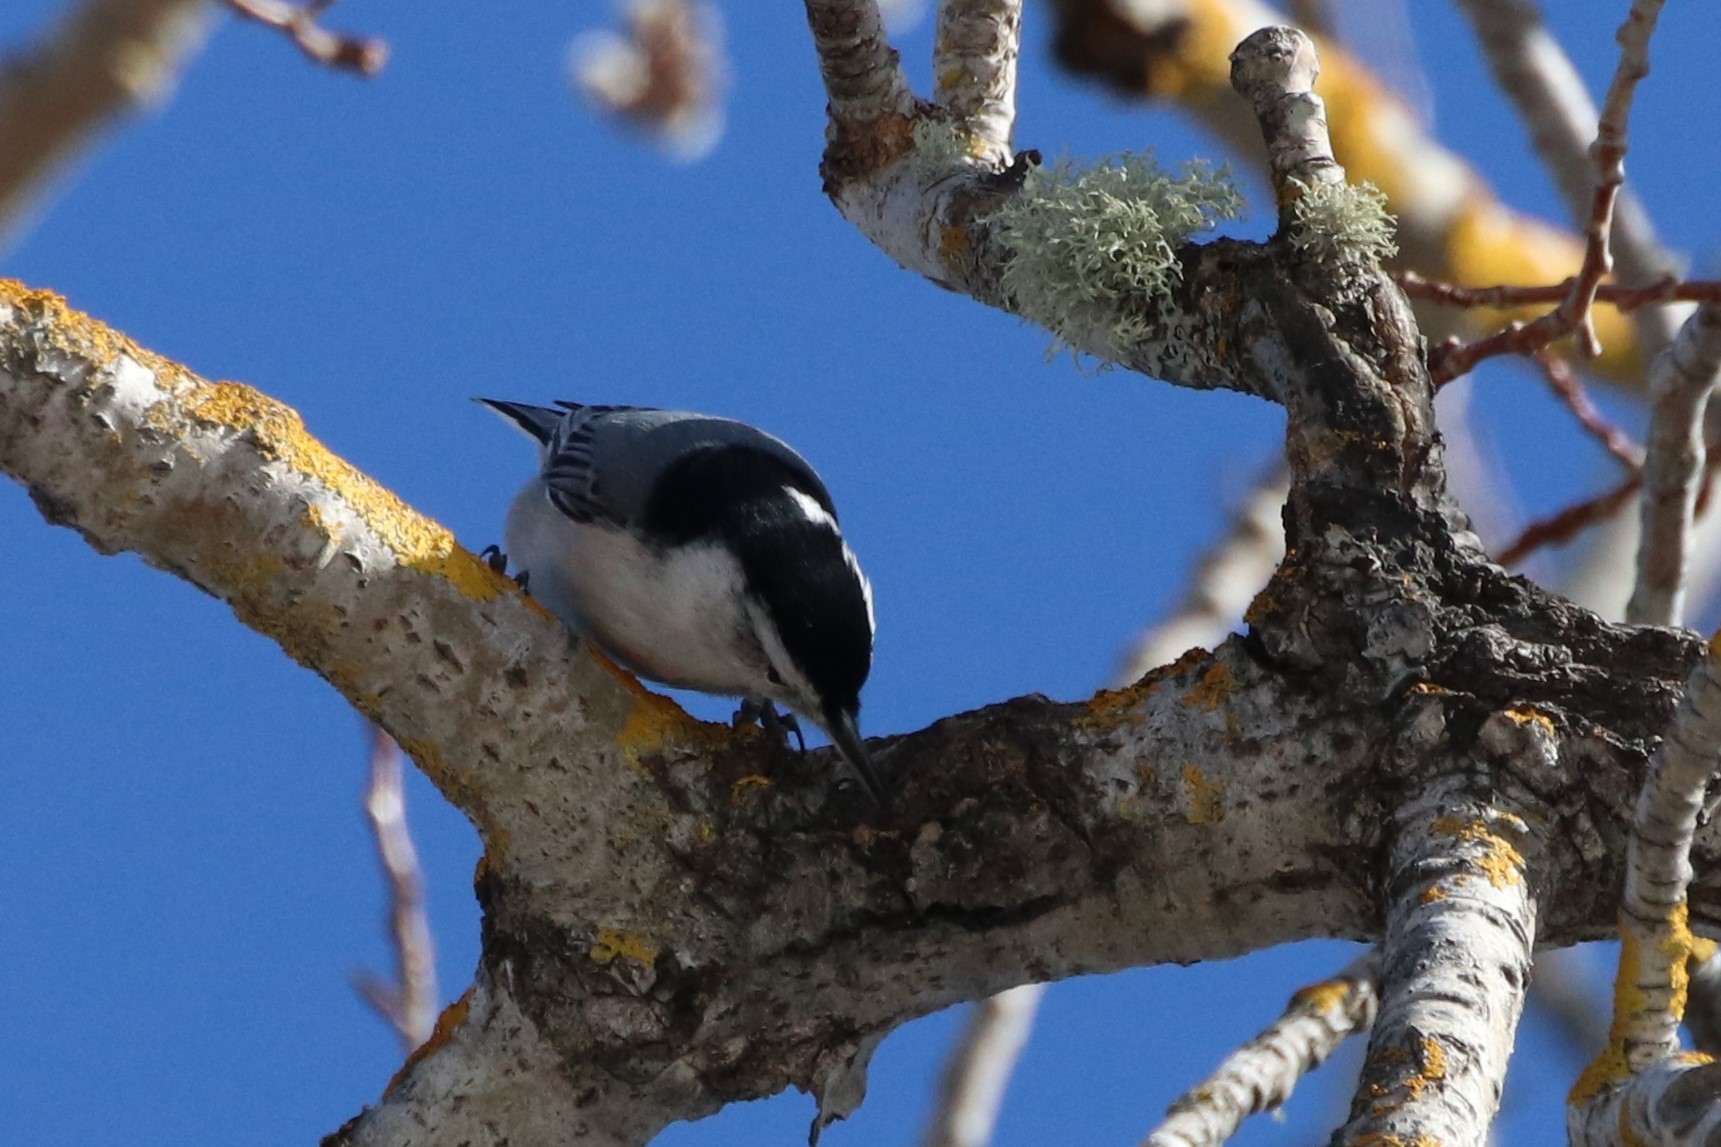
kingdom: Animalia
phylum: Chordata
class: Aves
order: Passeriformes
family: Sittidae
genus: Sitta
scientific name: Sitta carolinensis
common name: White-breasted nuthatch
